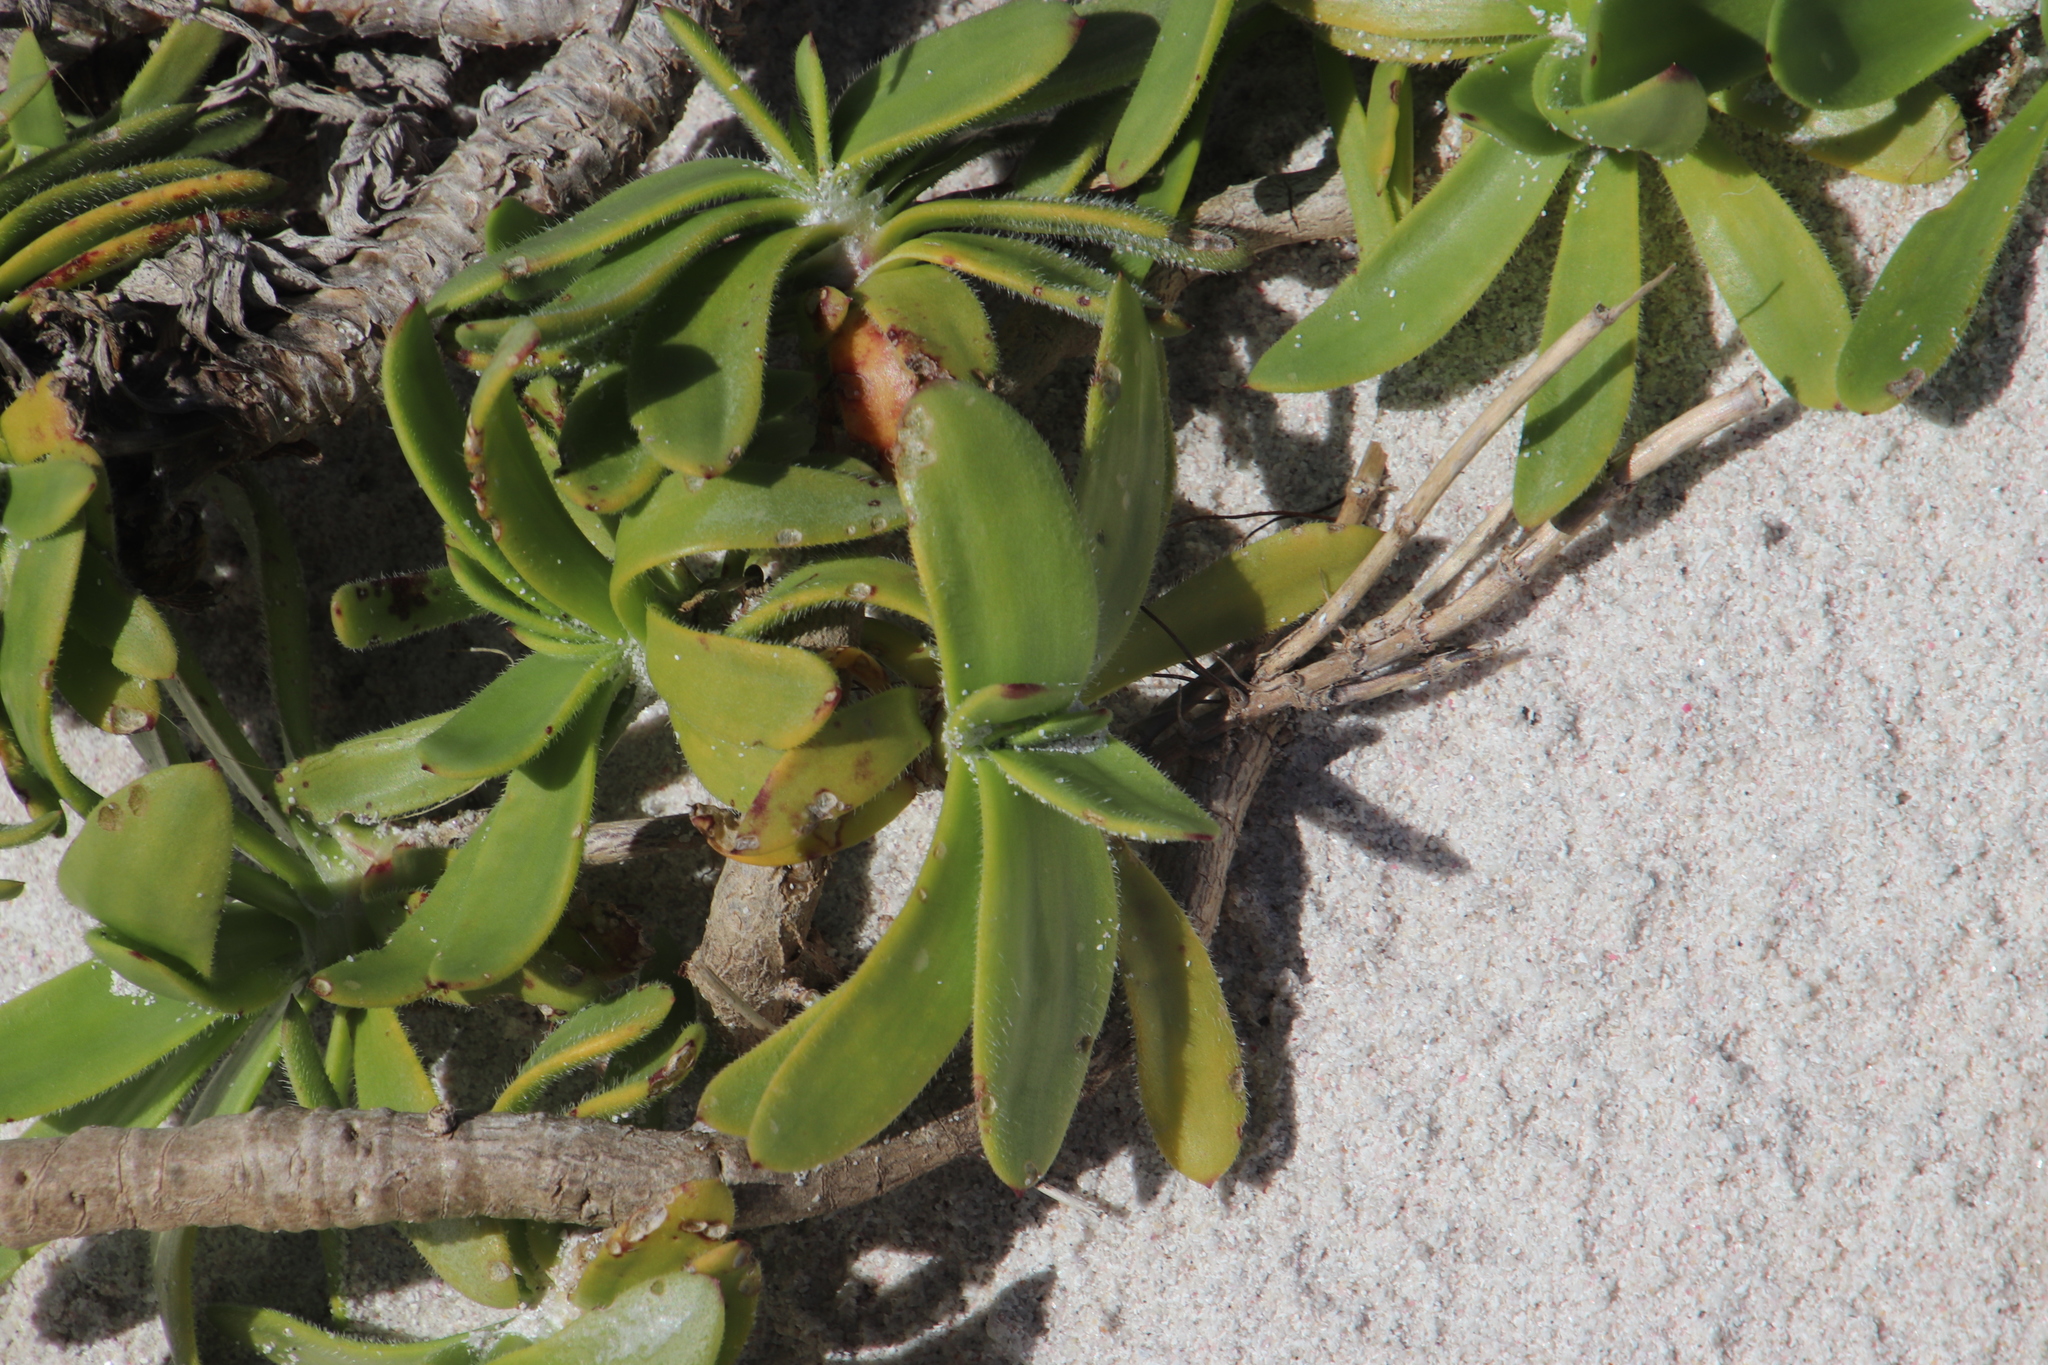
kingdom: Plantae
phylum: Tracheophyta
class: Magnoliopsida
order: Lamiales
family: Plantaginaceae
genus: Plantago
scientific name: Plantago carnosa
